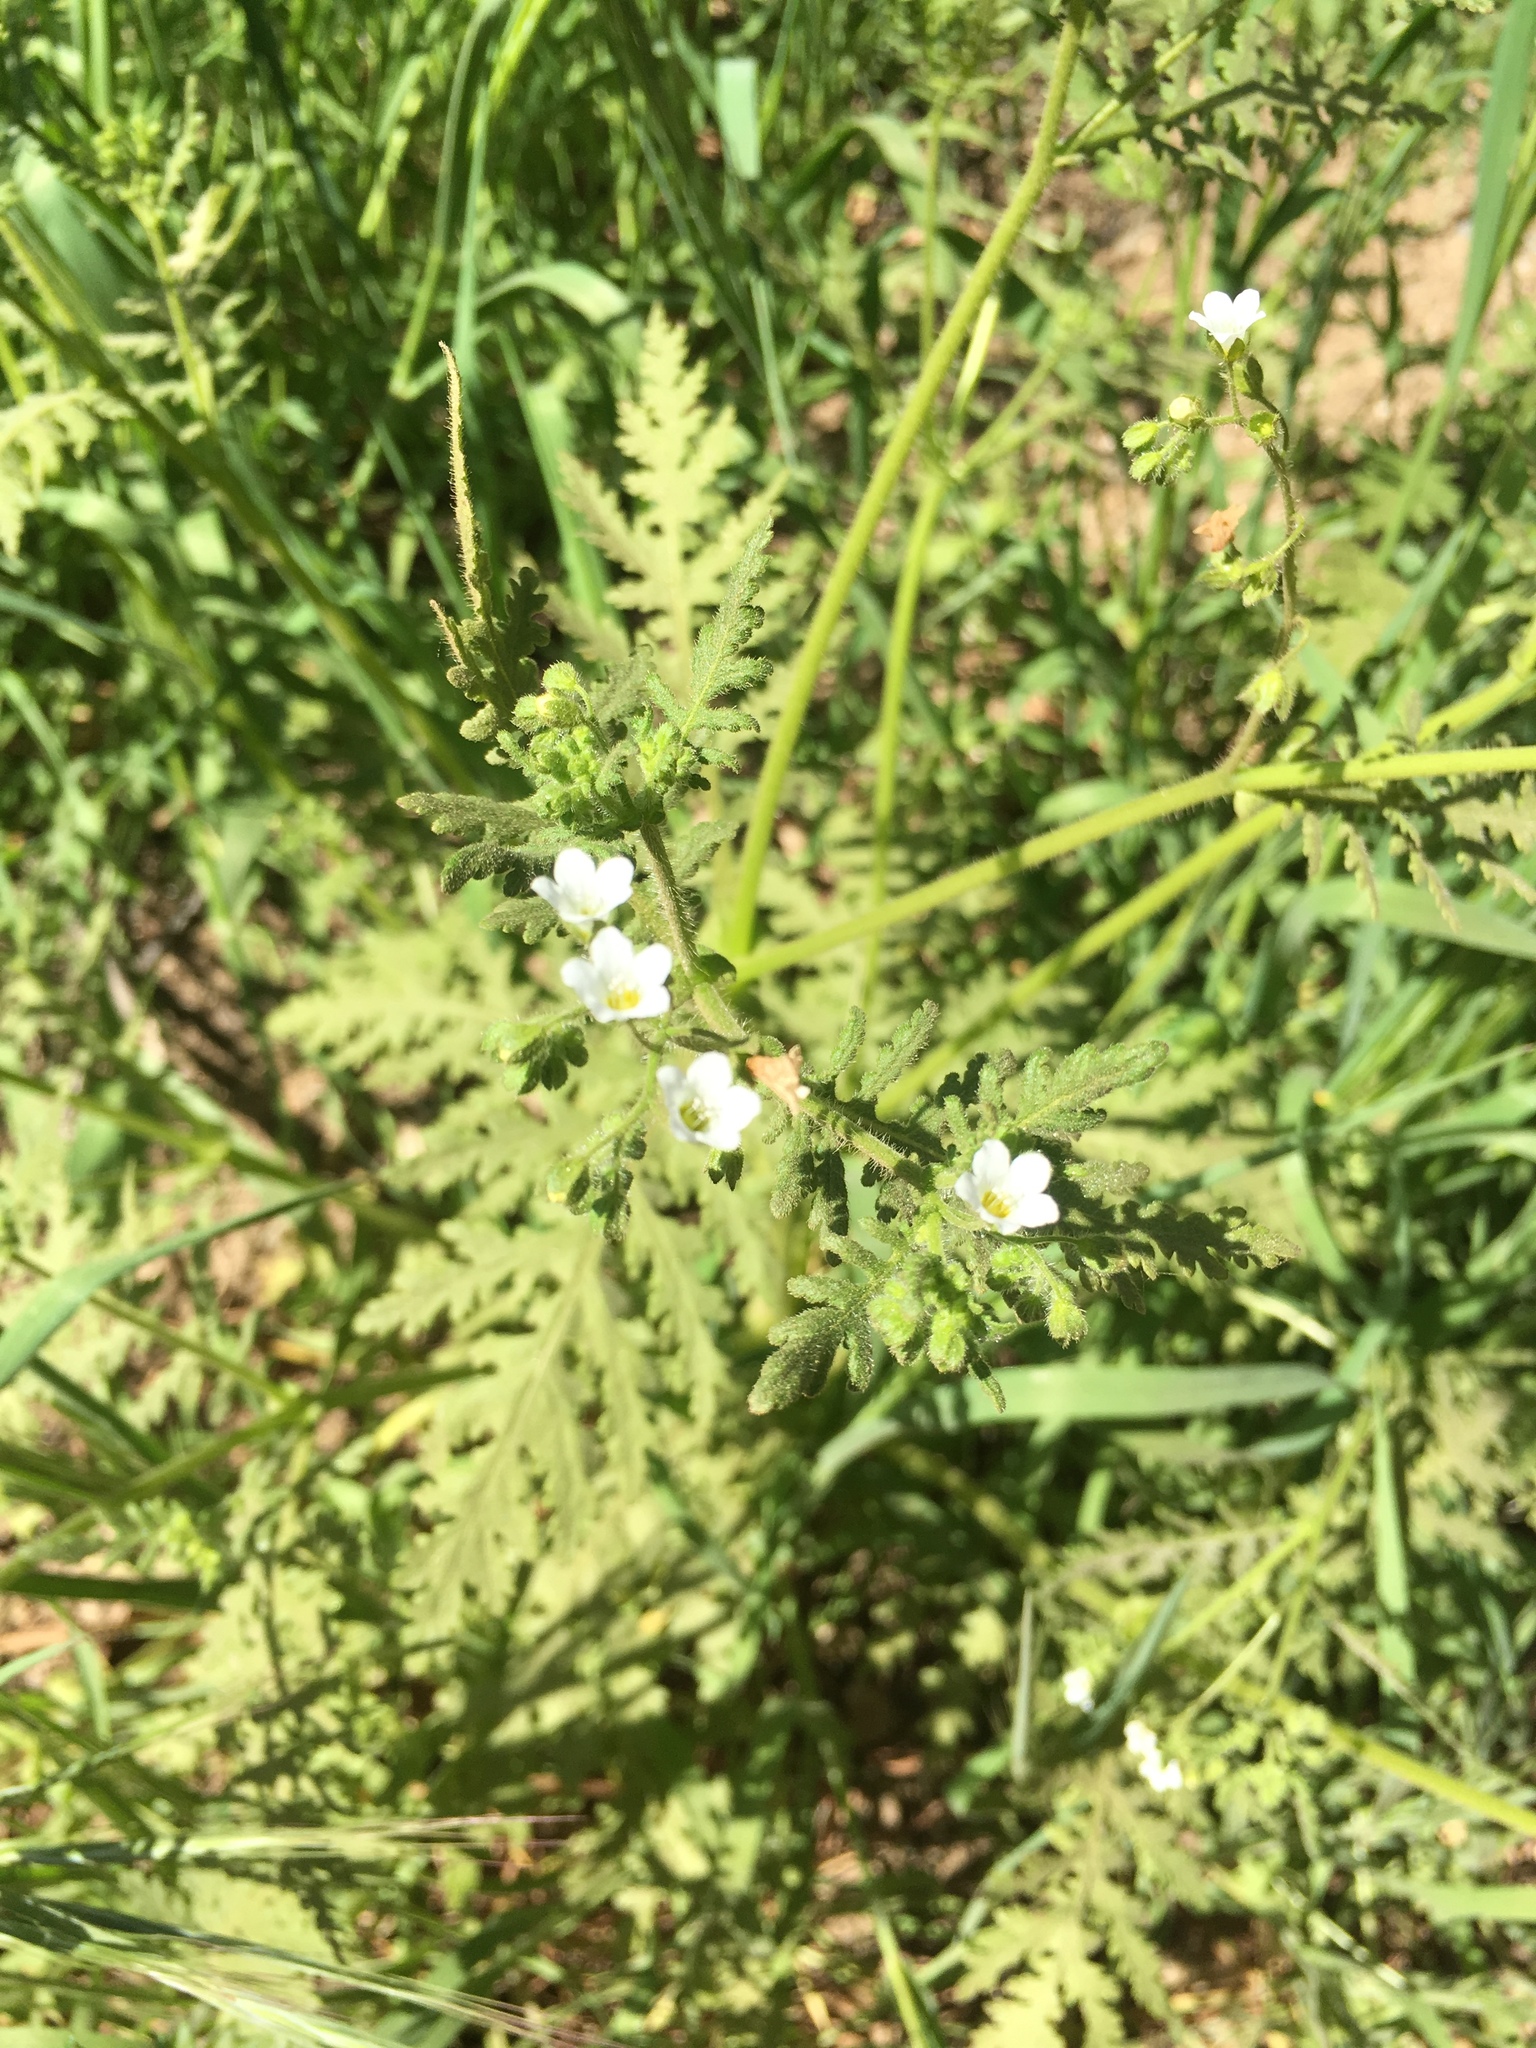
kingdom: Plantae
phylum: Tracheophyta
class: Magnoliopsida
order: Boraginales
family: Hydrophyllaceae
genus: Eucrypta
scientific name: Eucrypta chrysanthemifolia
